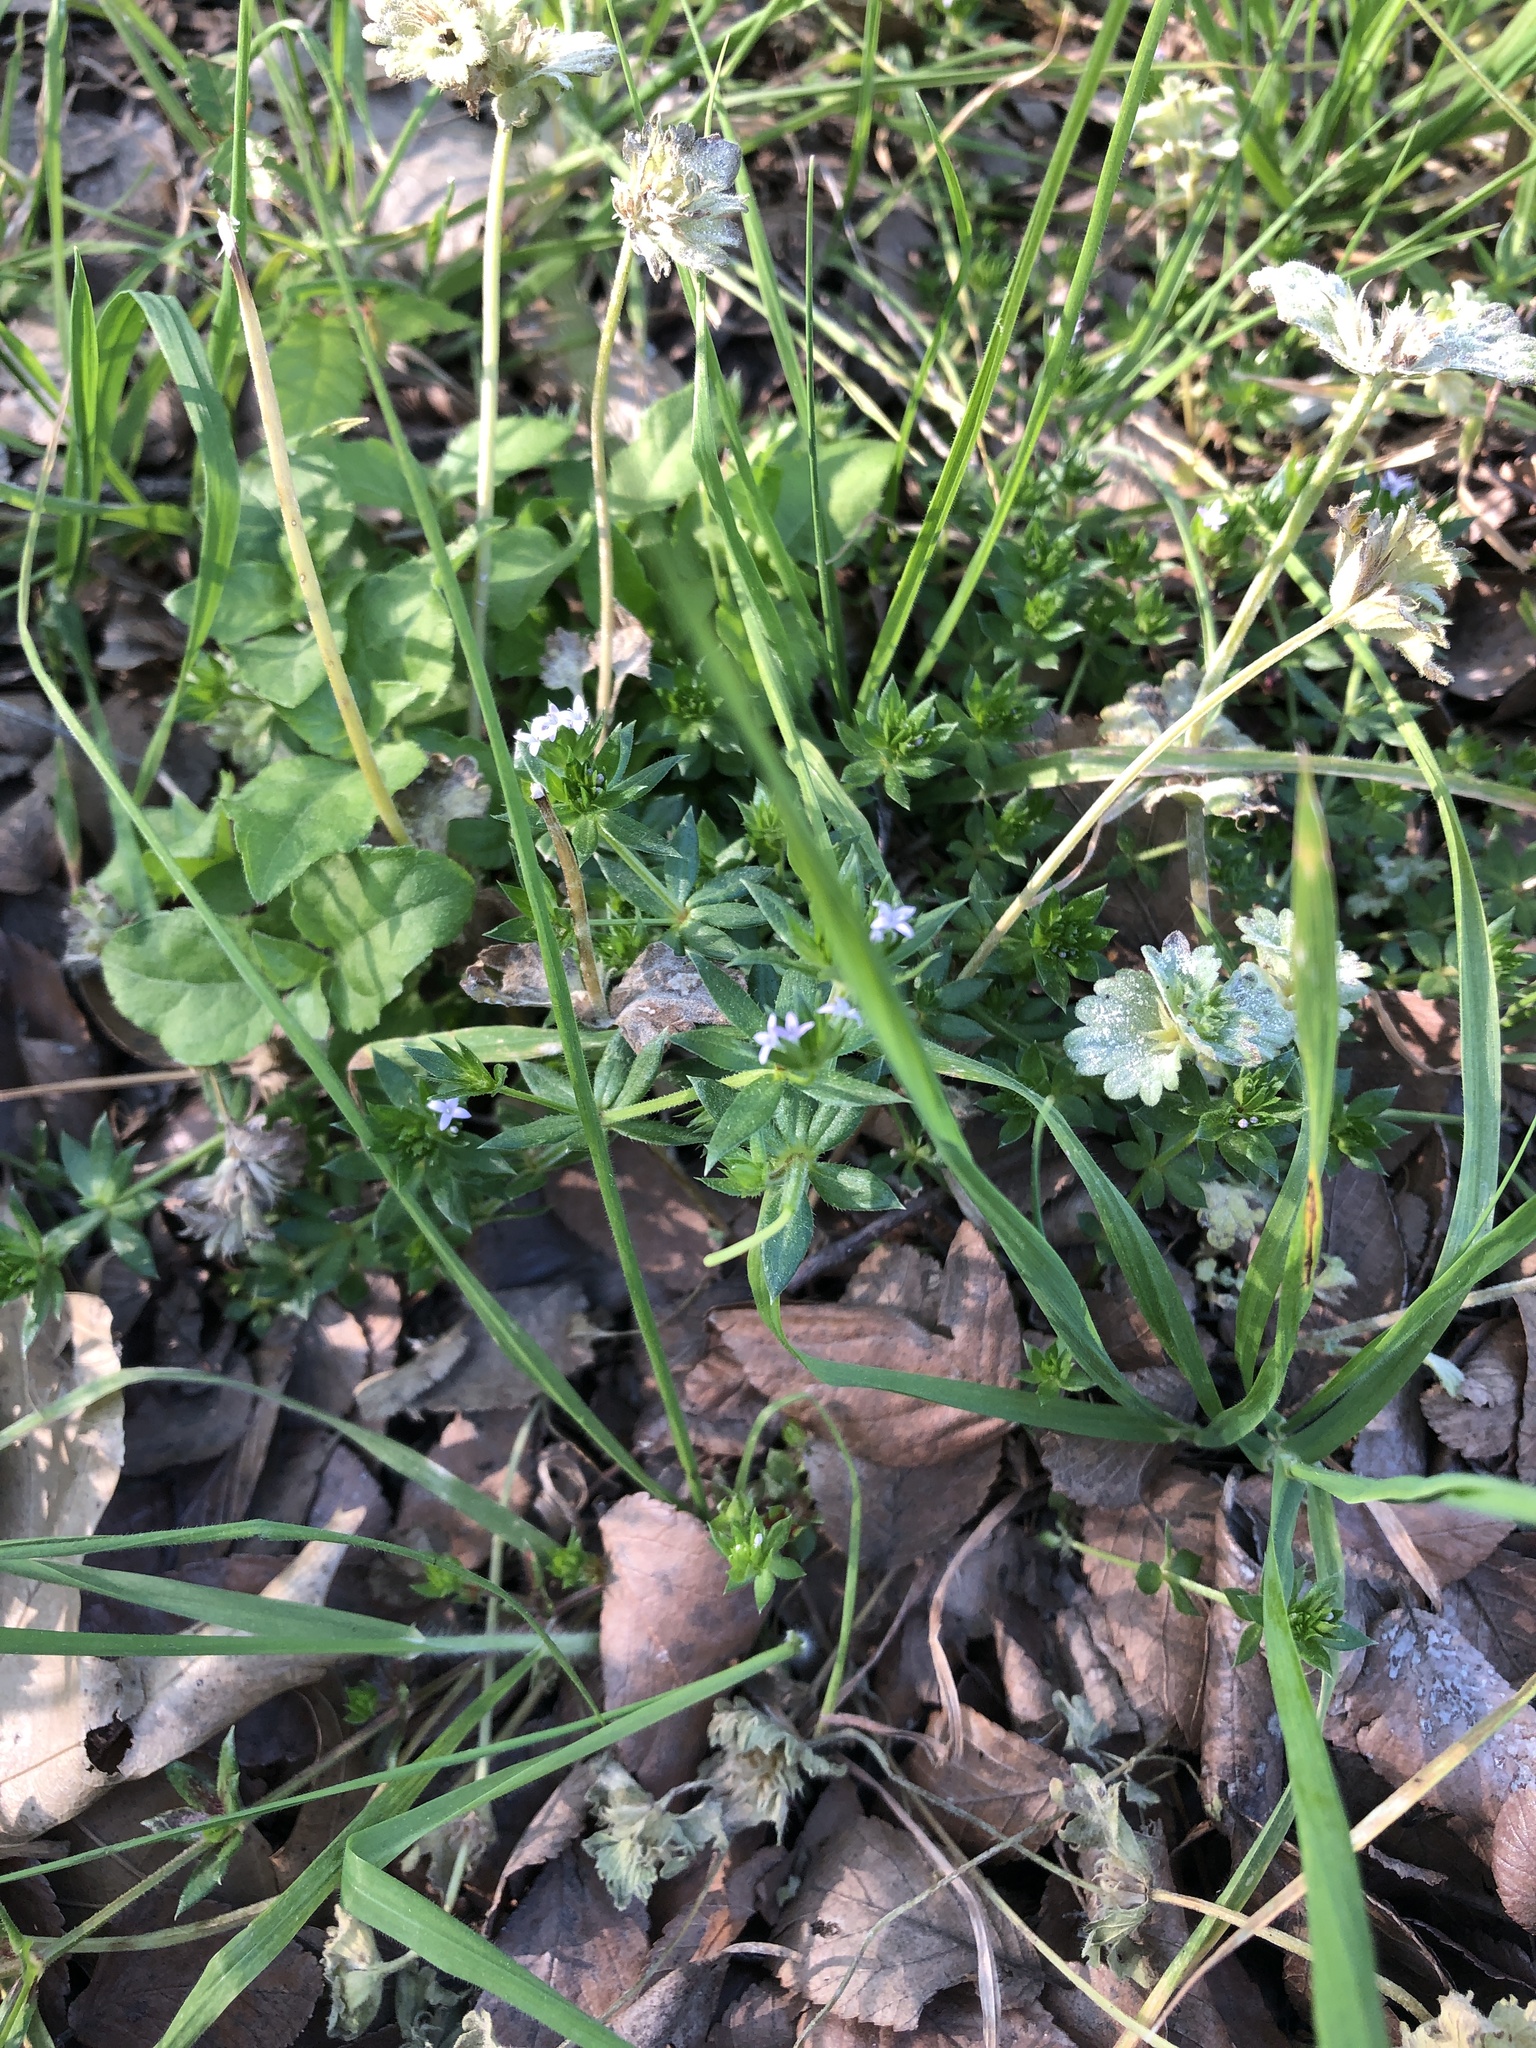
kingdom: Plantae
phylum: Tracheophyta
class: Magnoliopsida
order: Gentianales
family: Rubiaceae
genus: Sherardia
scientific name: Sherardia arvensis
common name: Field madder
